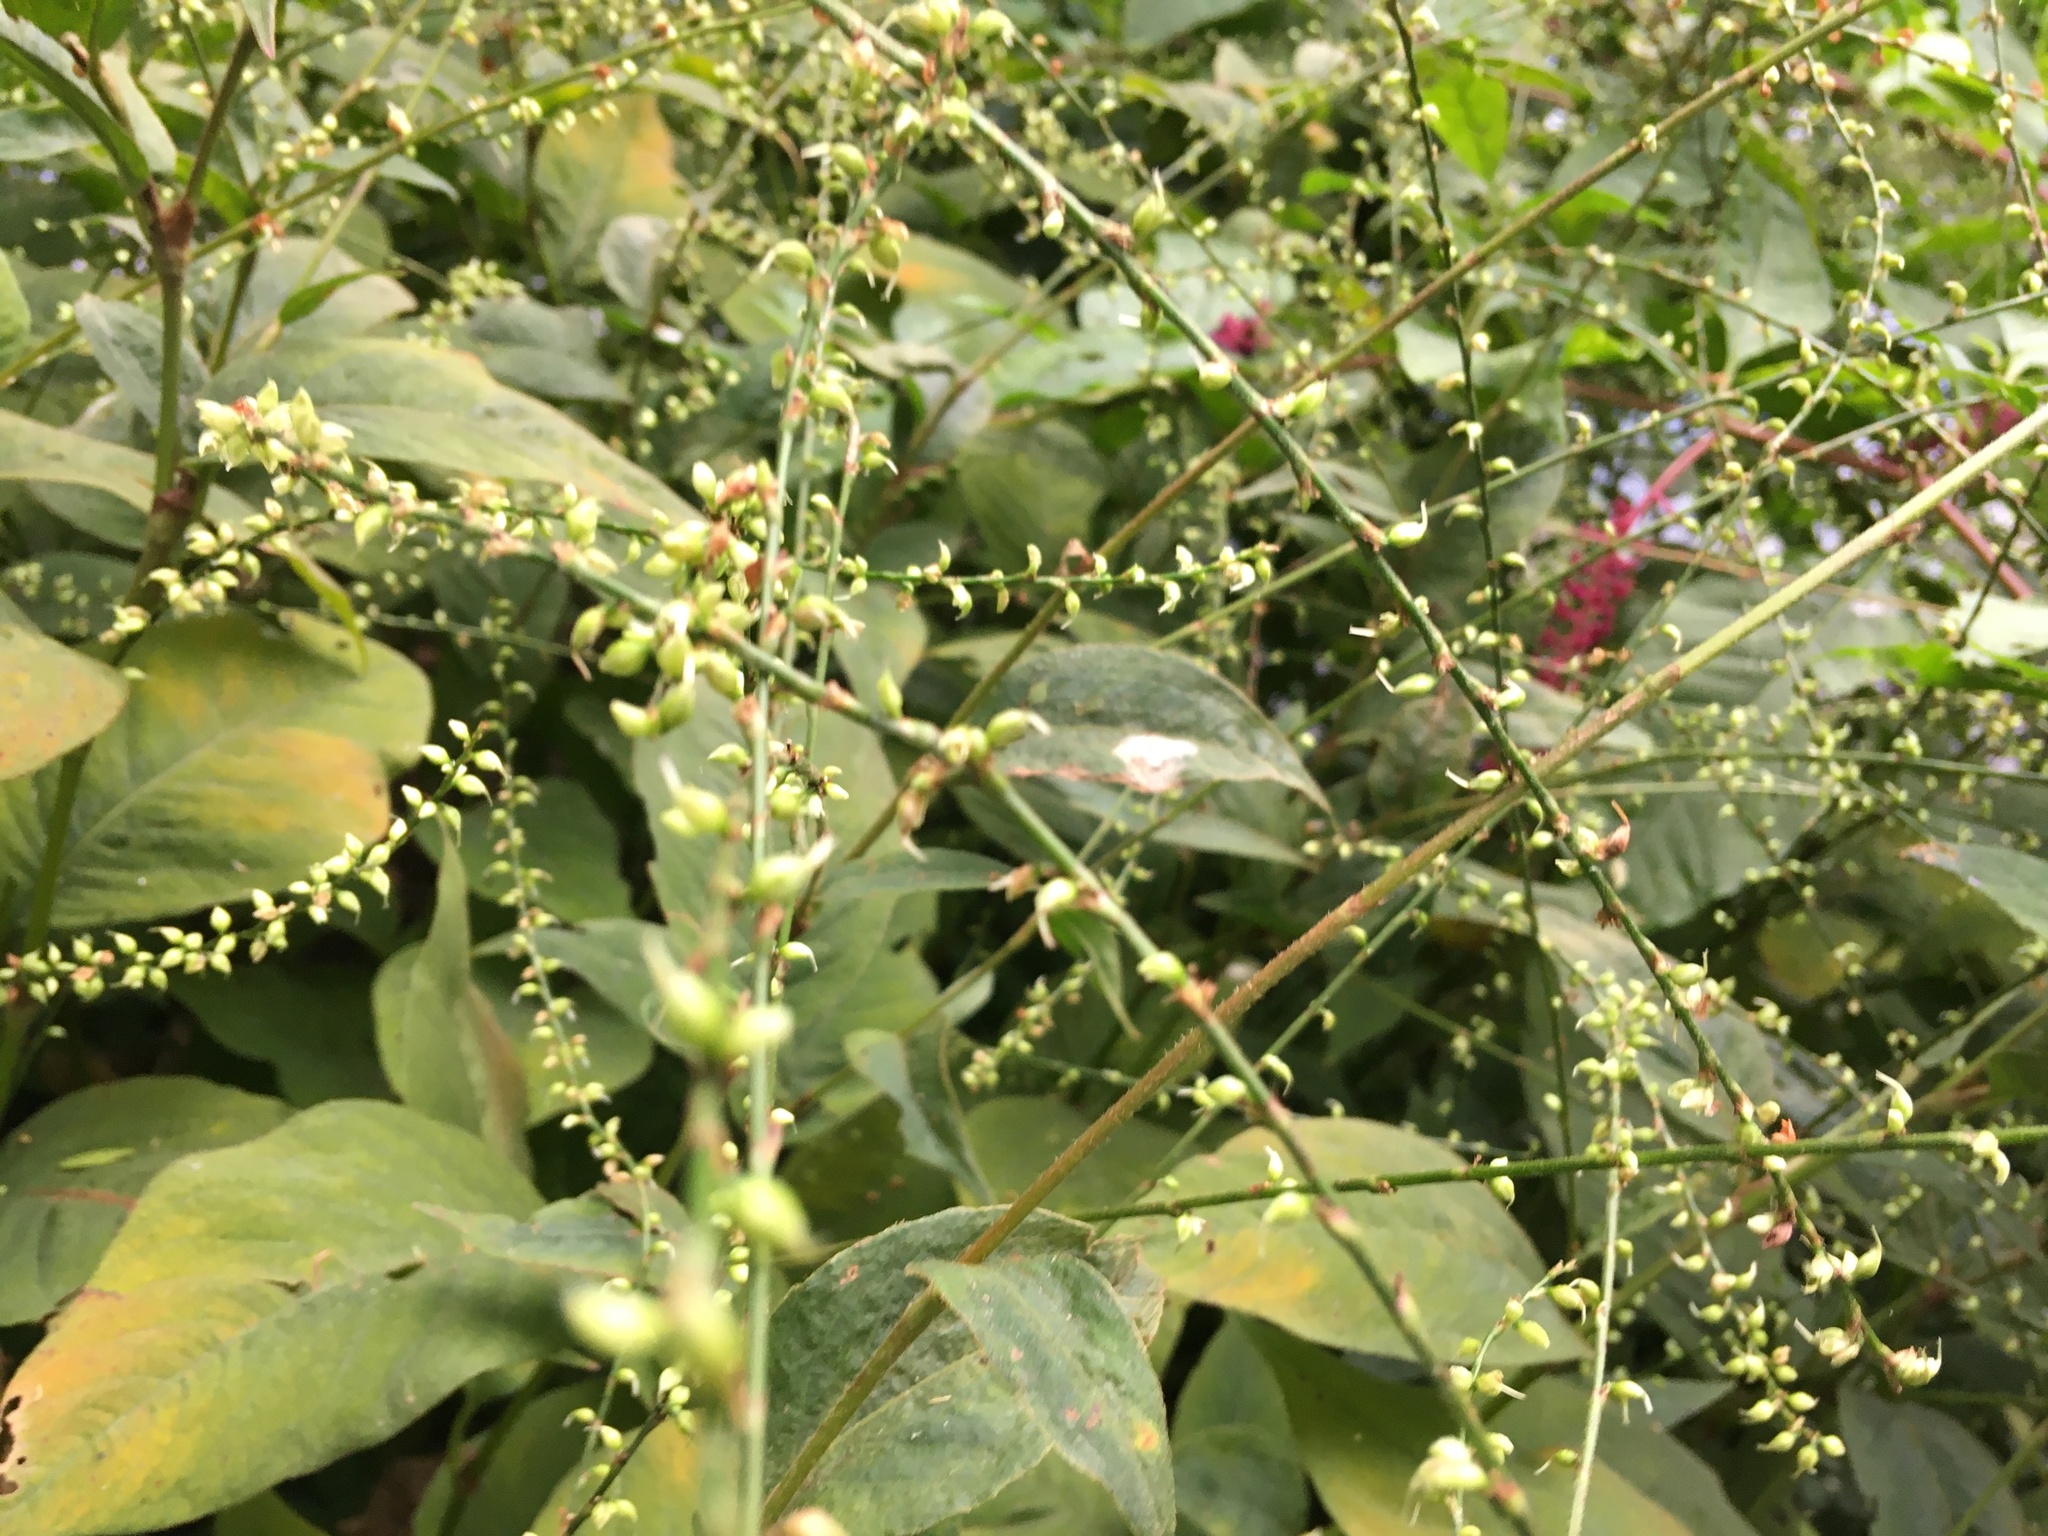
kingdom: Plantae
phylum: Tracheophyta
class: Magnoliopsida
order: Caryophyllales
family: Polygonaceae
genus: Persicaria
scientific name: Persicaria virginiana
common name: Jumpseed
